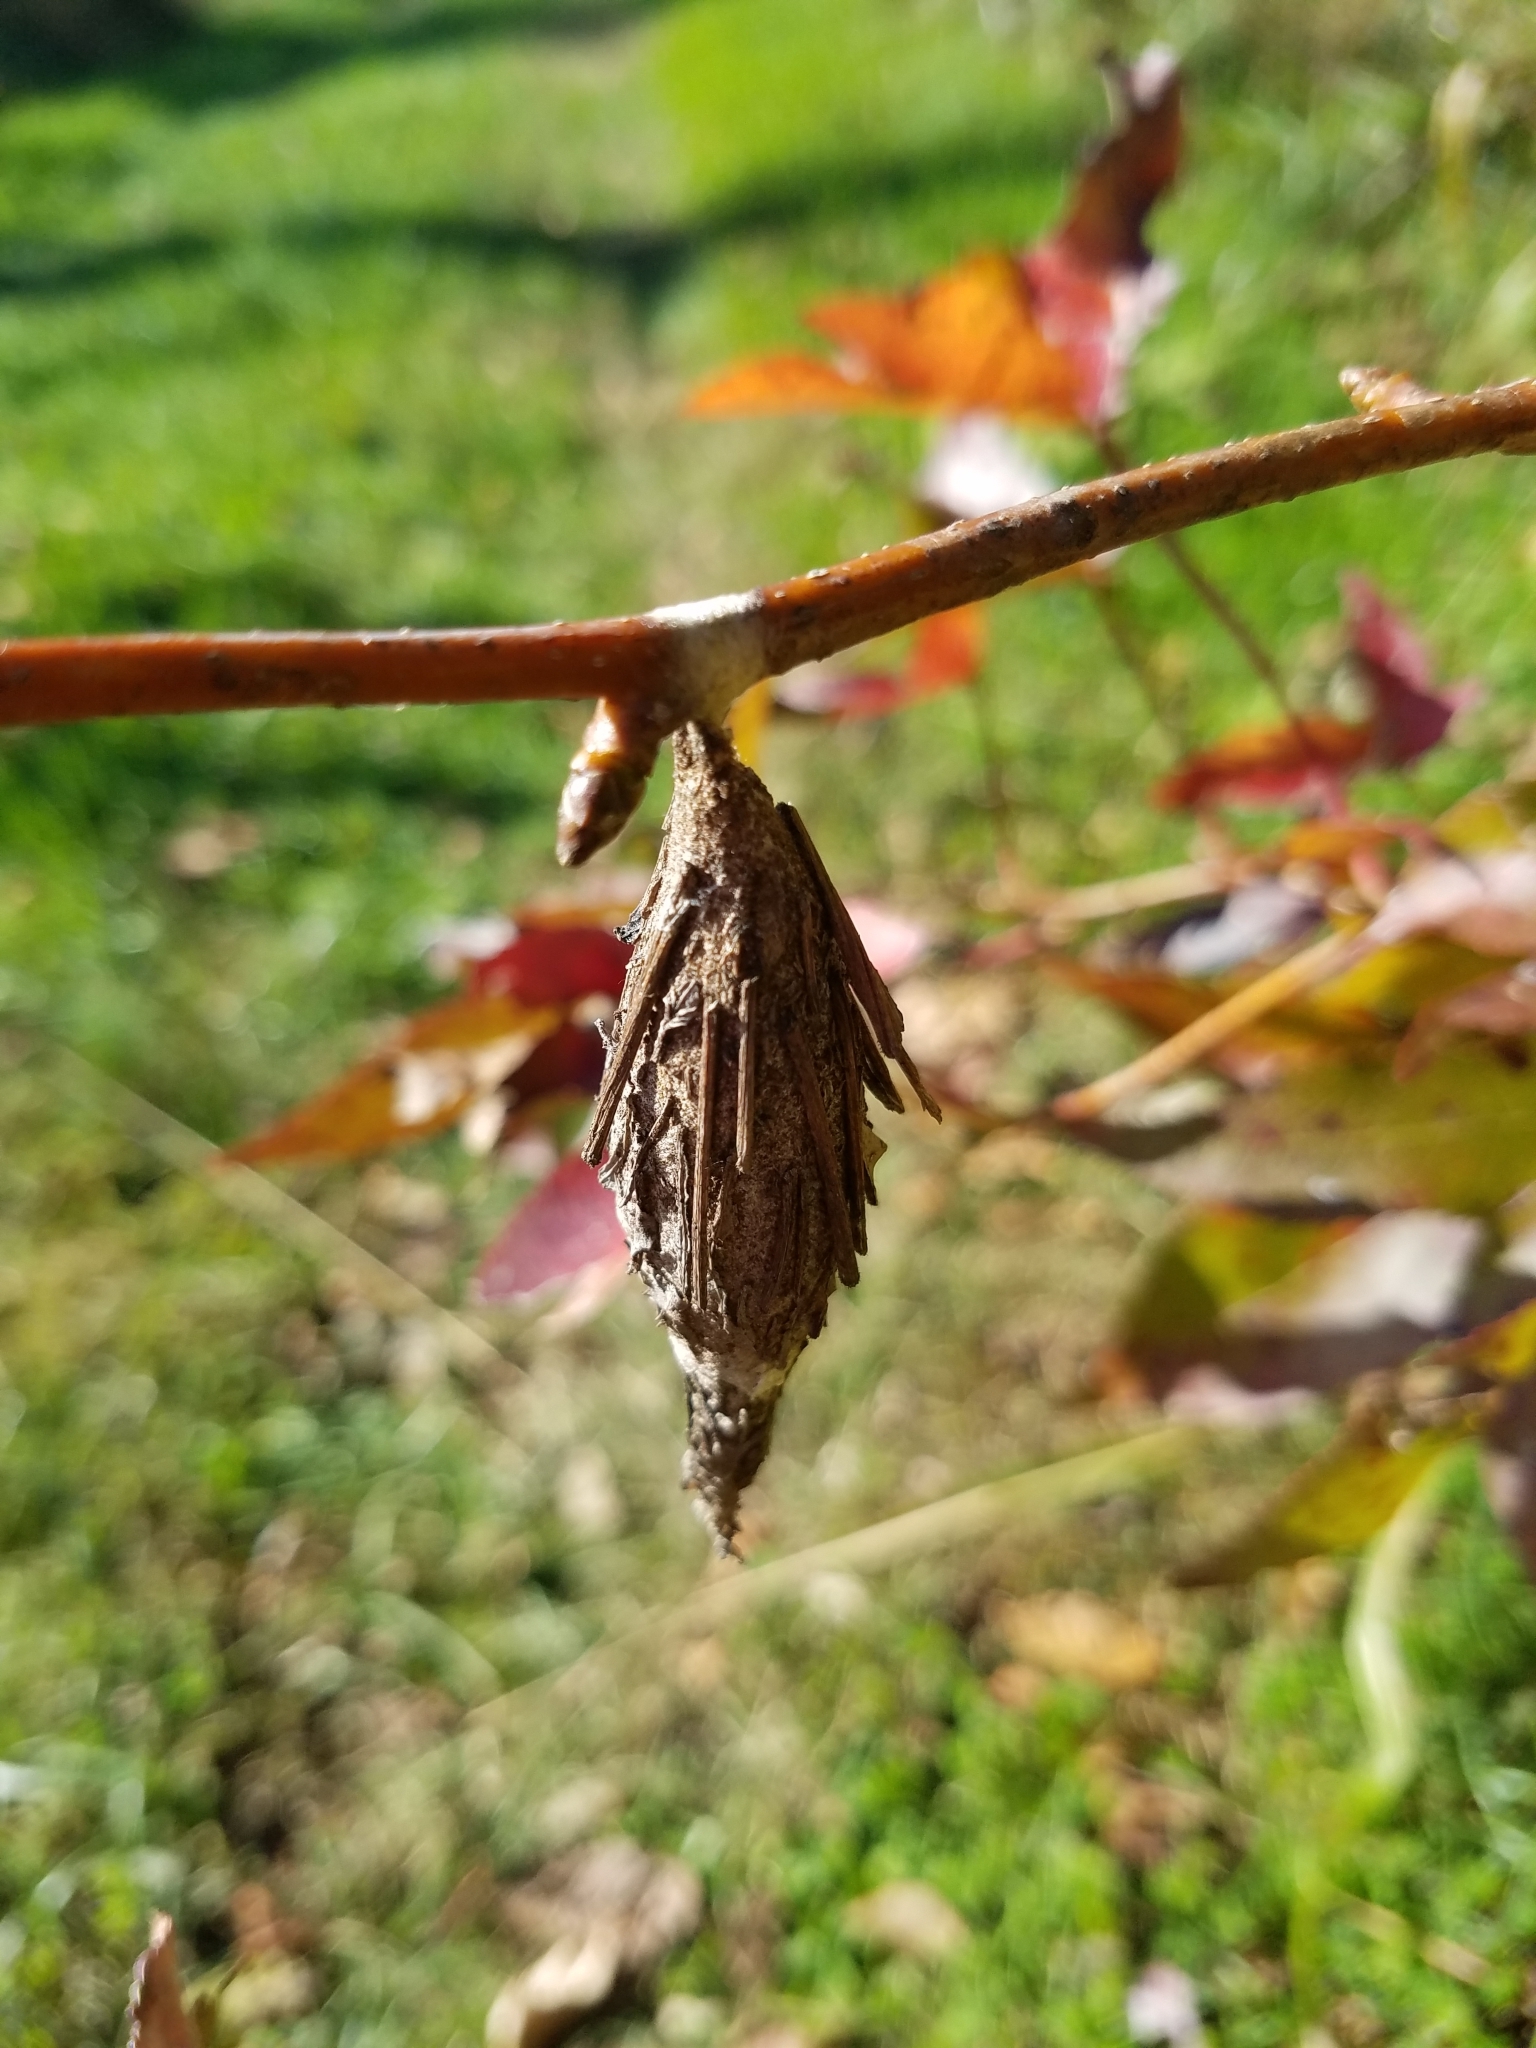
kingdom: Animalia
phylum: Arthropoda
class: Insecta
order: Lepidoptera
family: Psychidae
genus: Thyridopteryx
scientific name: Thyridopteryx ephemeraeformis
